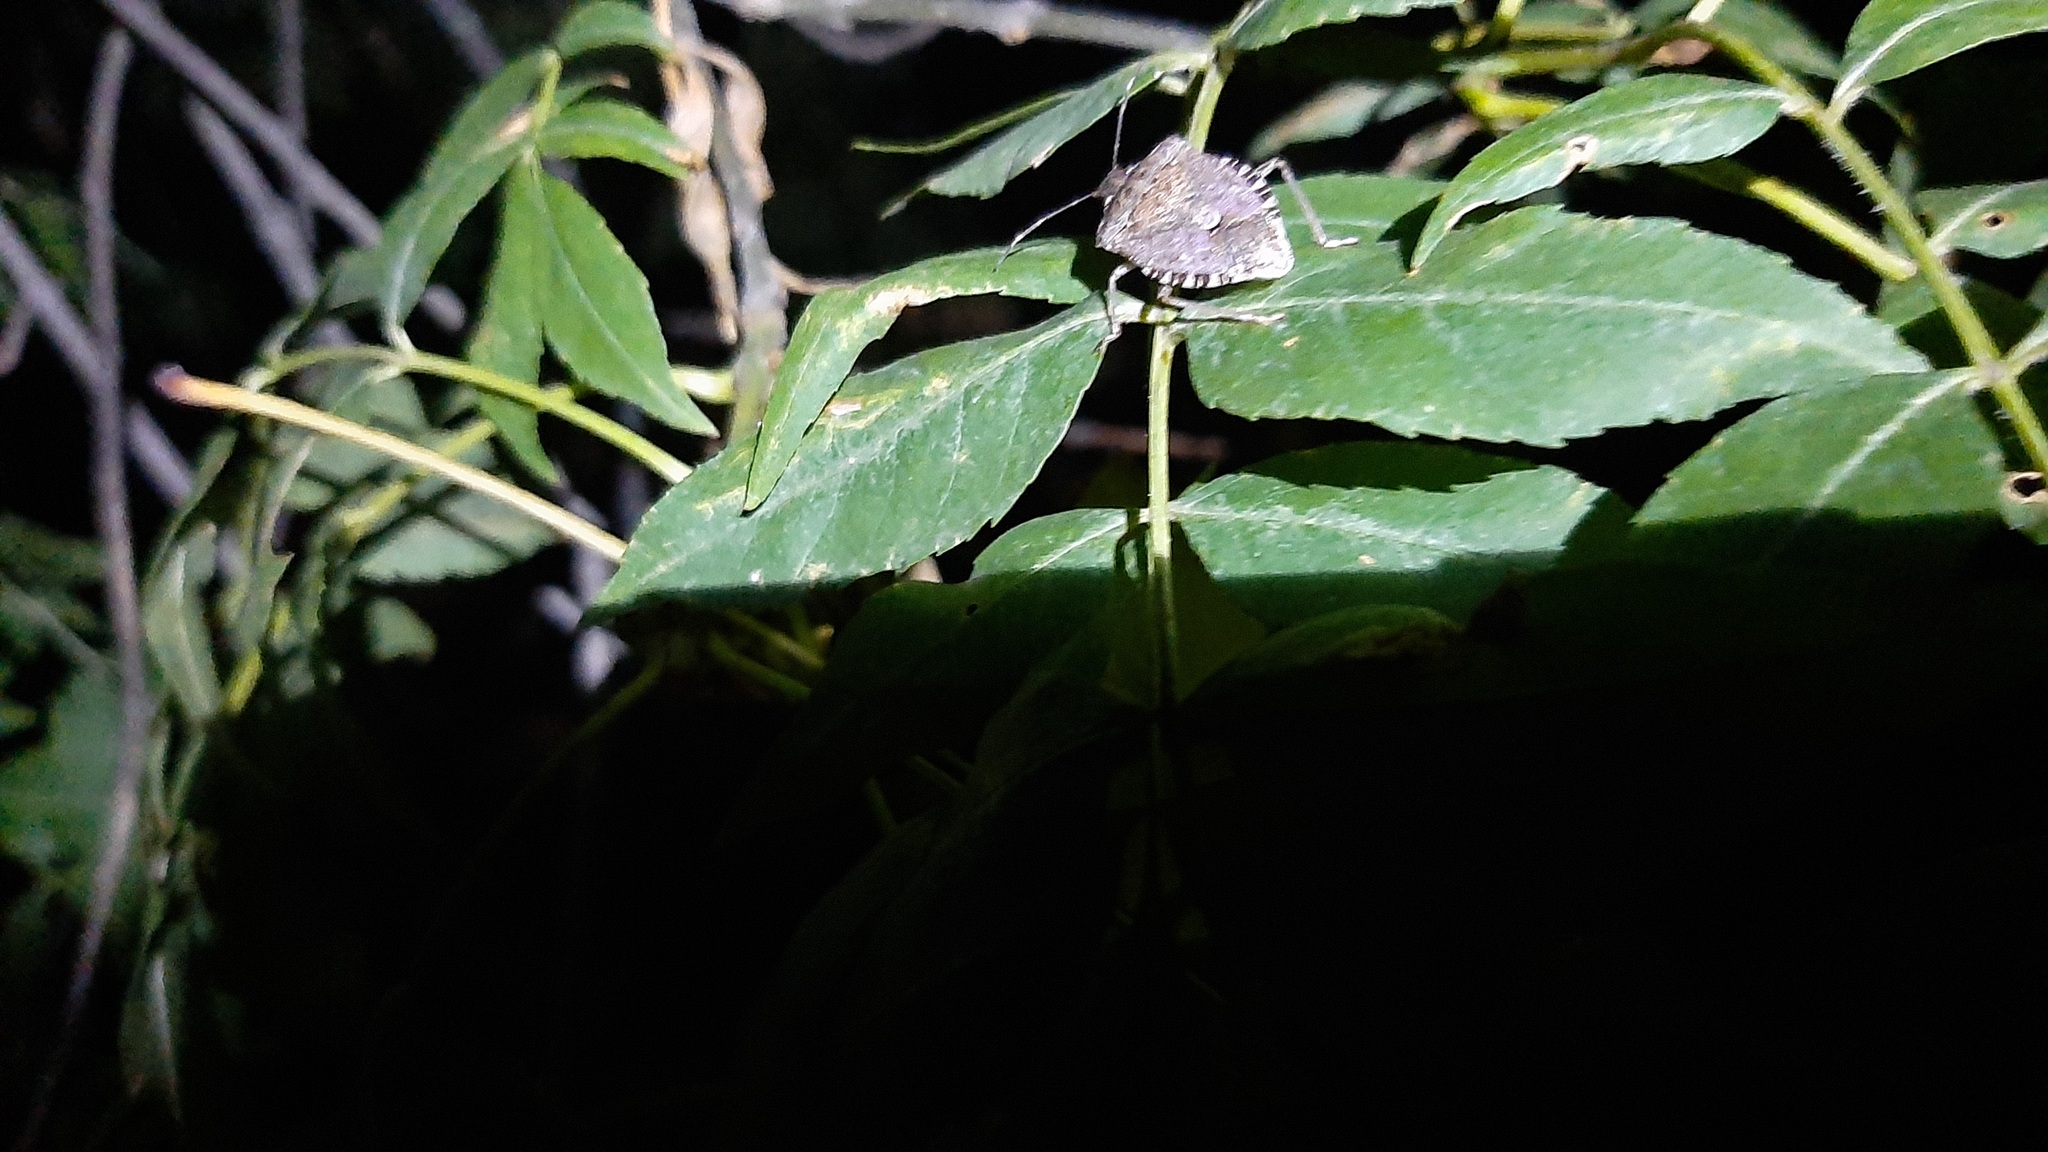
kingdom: Animalia
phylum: Arthropoda
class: Insecta
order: Hemiptera
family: Pentatomidae
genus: Halyomorpha
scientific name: Halyomorpha halys
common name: Brown marmorated stink bug
